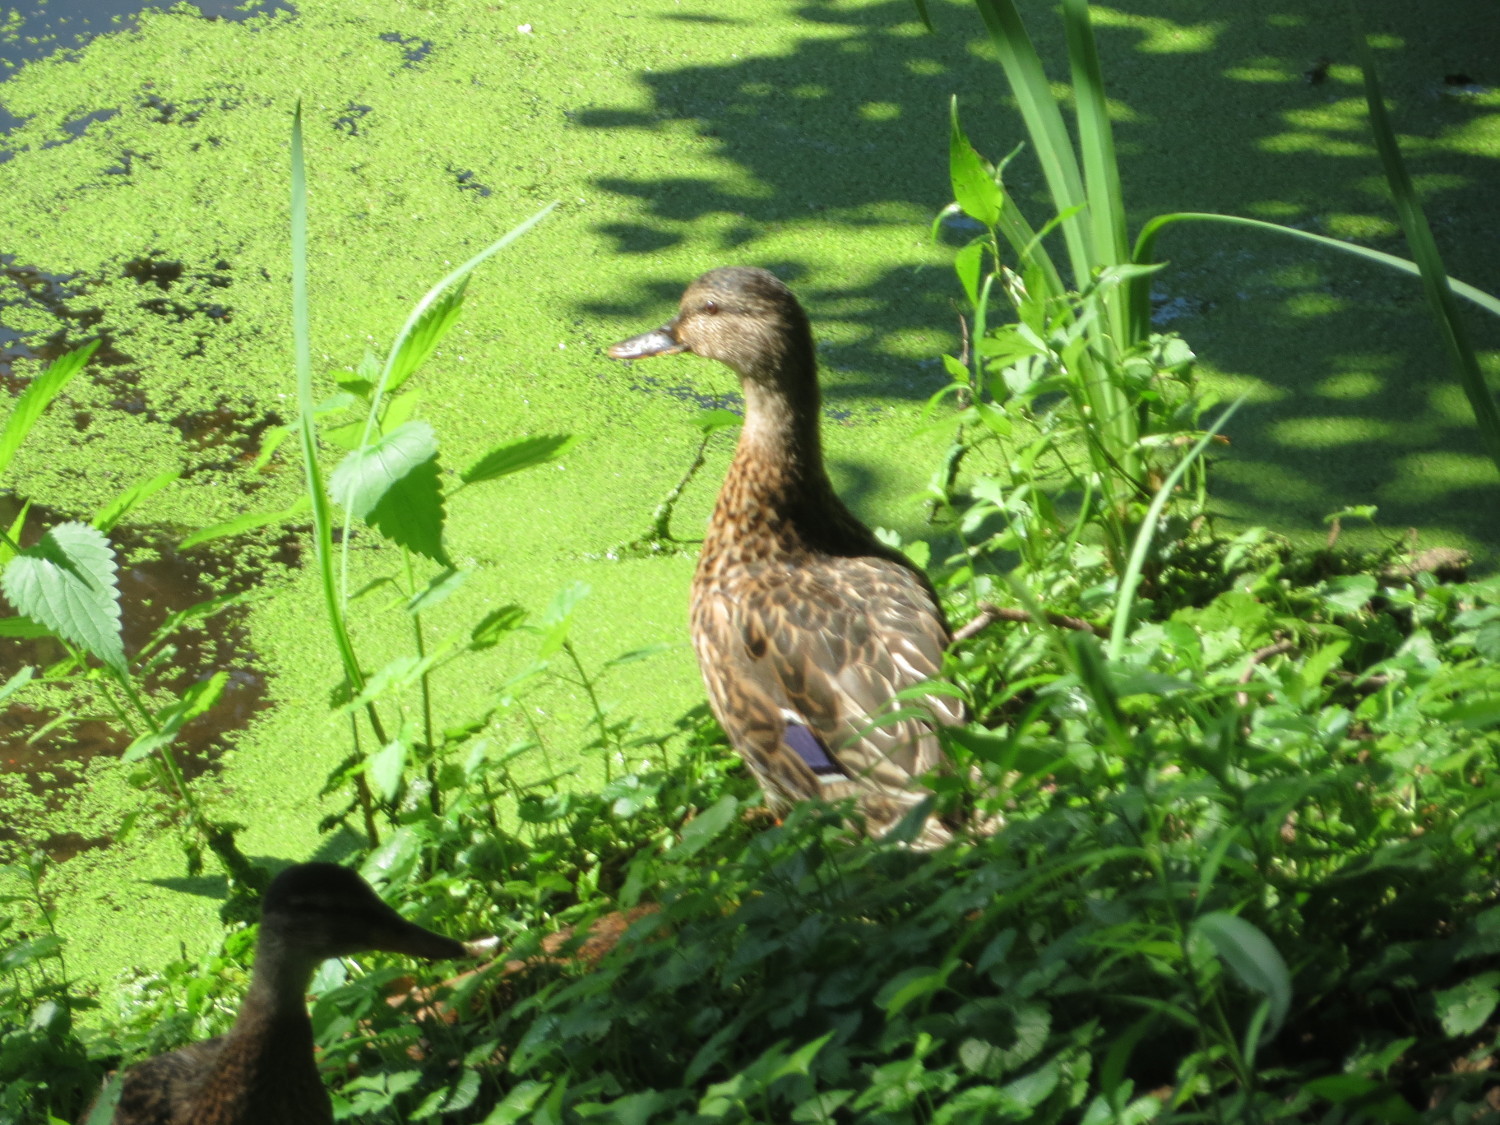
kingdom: Animalia
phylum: Chordata
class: Aves
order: Anseriformes
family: Anatidae
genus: Anas
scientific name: Anas platyrhynchos
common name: Mallard
